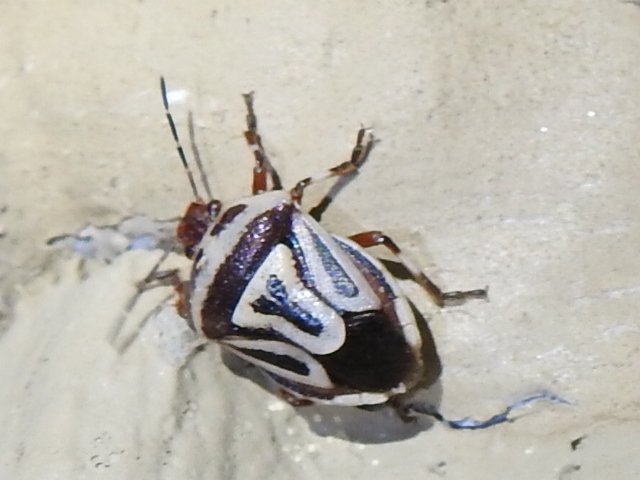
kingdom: Animalia
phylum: Arthropoda
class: Insecta
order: Hemiptera
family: Pentatomidae
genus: Perillus
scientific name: Perillus bioculatus
